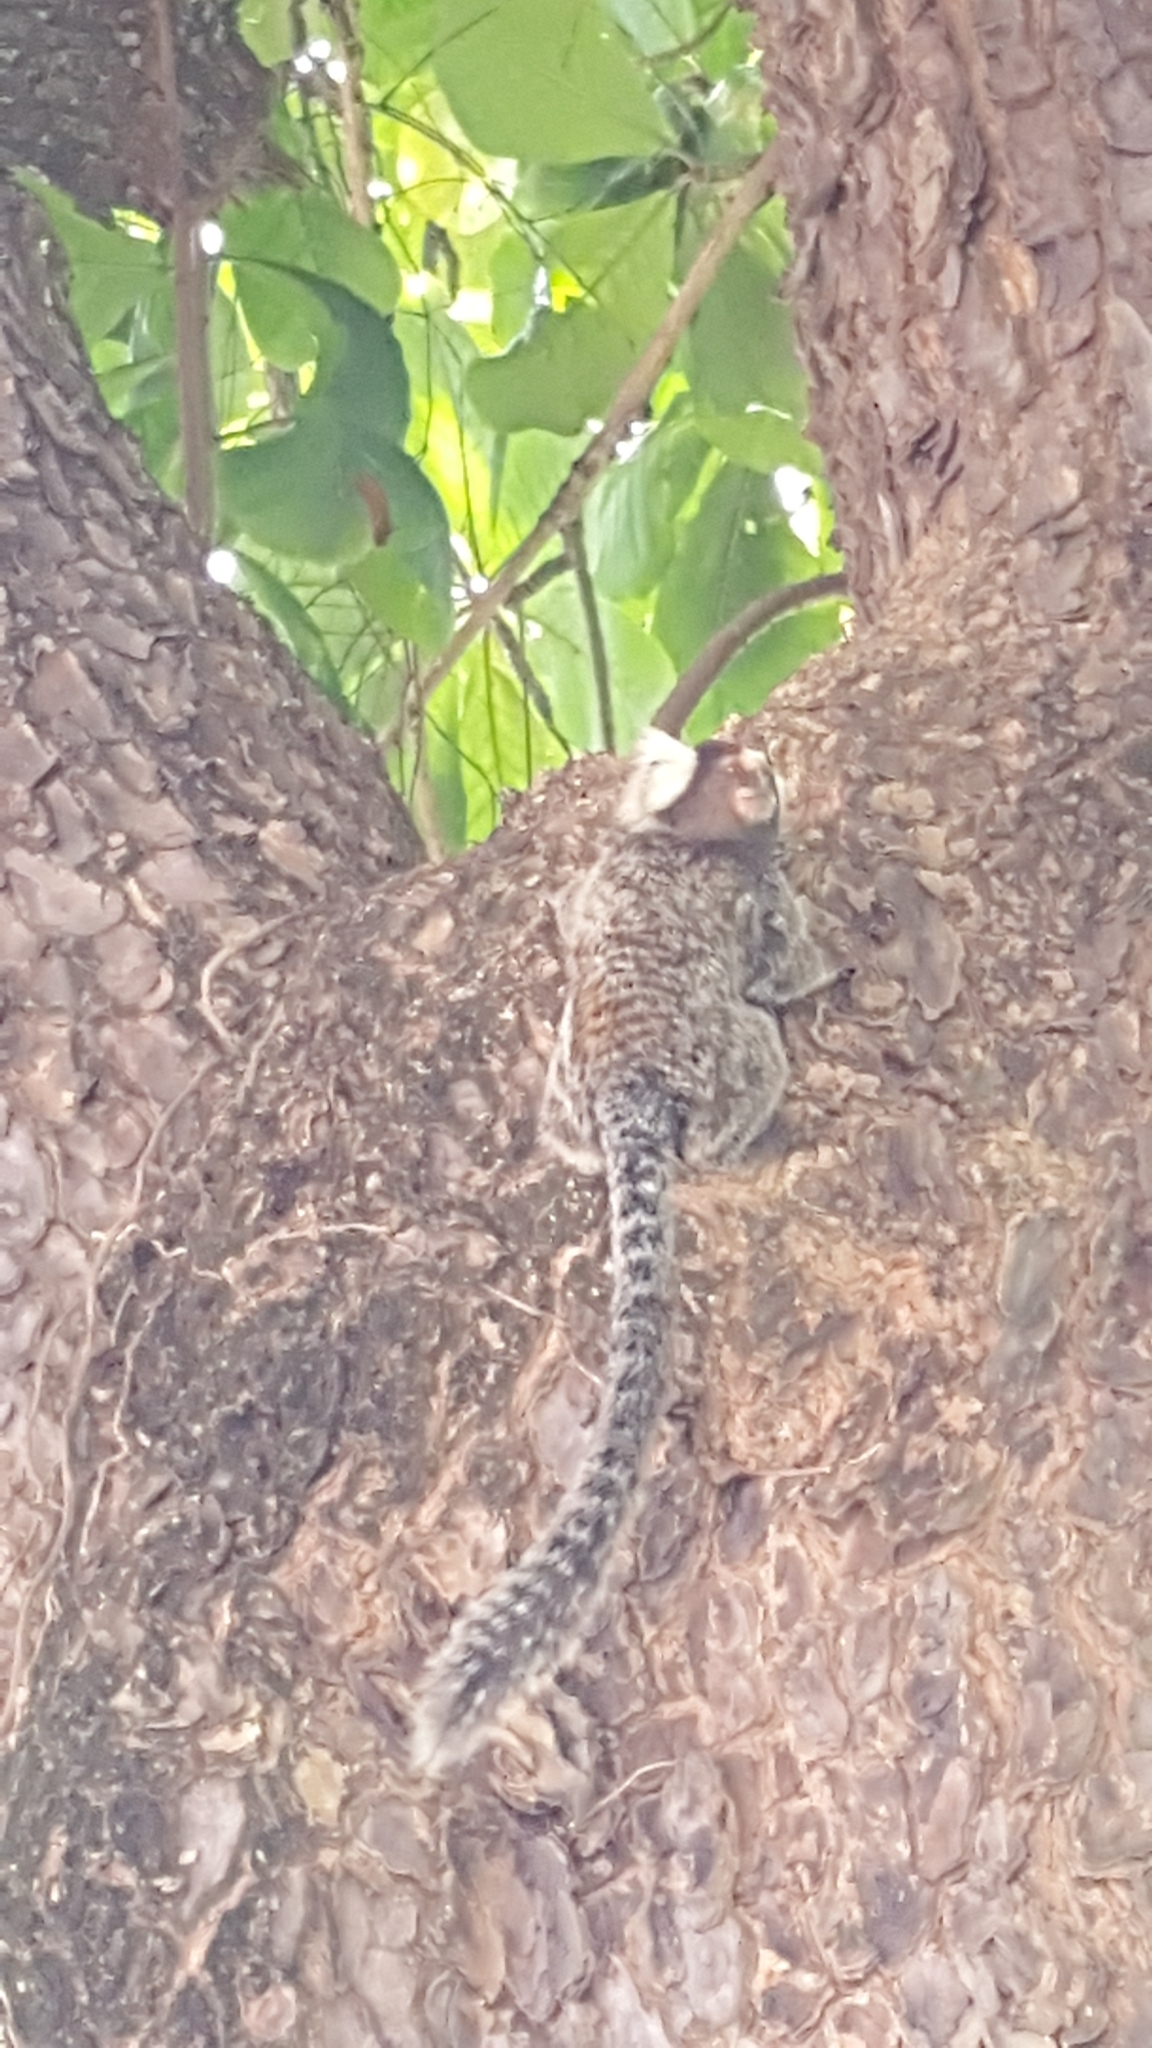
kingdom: Animalia
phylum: Chordata
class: Mammalia
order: Primates
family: Callitrichidae
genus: Callithrix
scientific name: Callithrix jacchus
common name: Common marmoset
